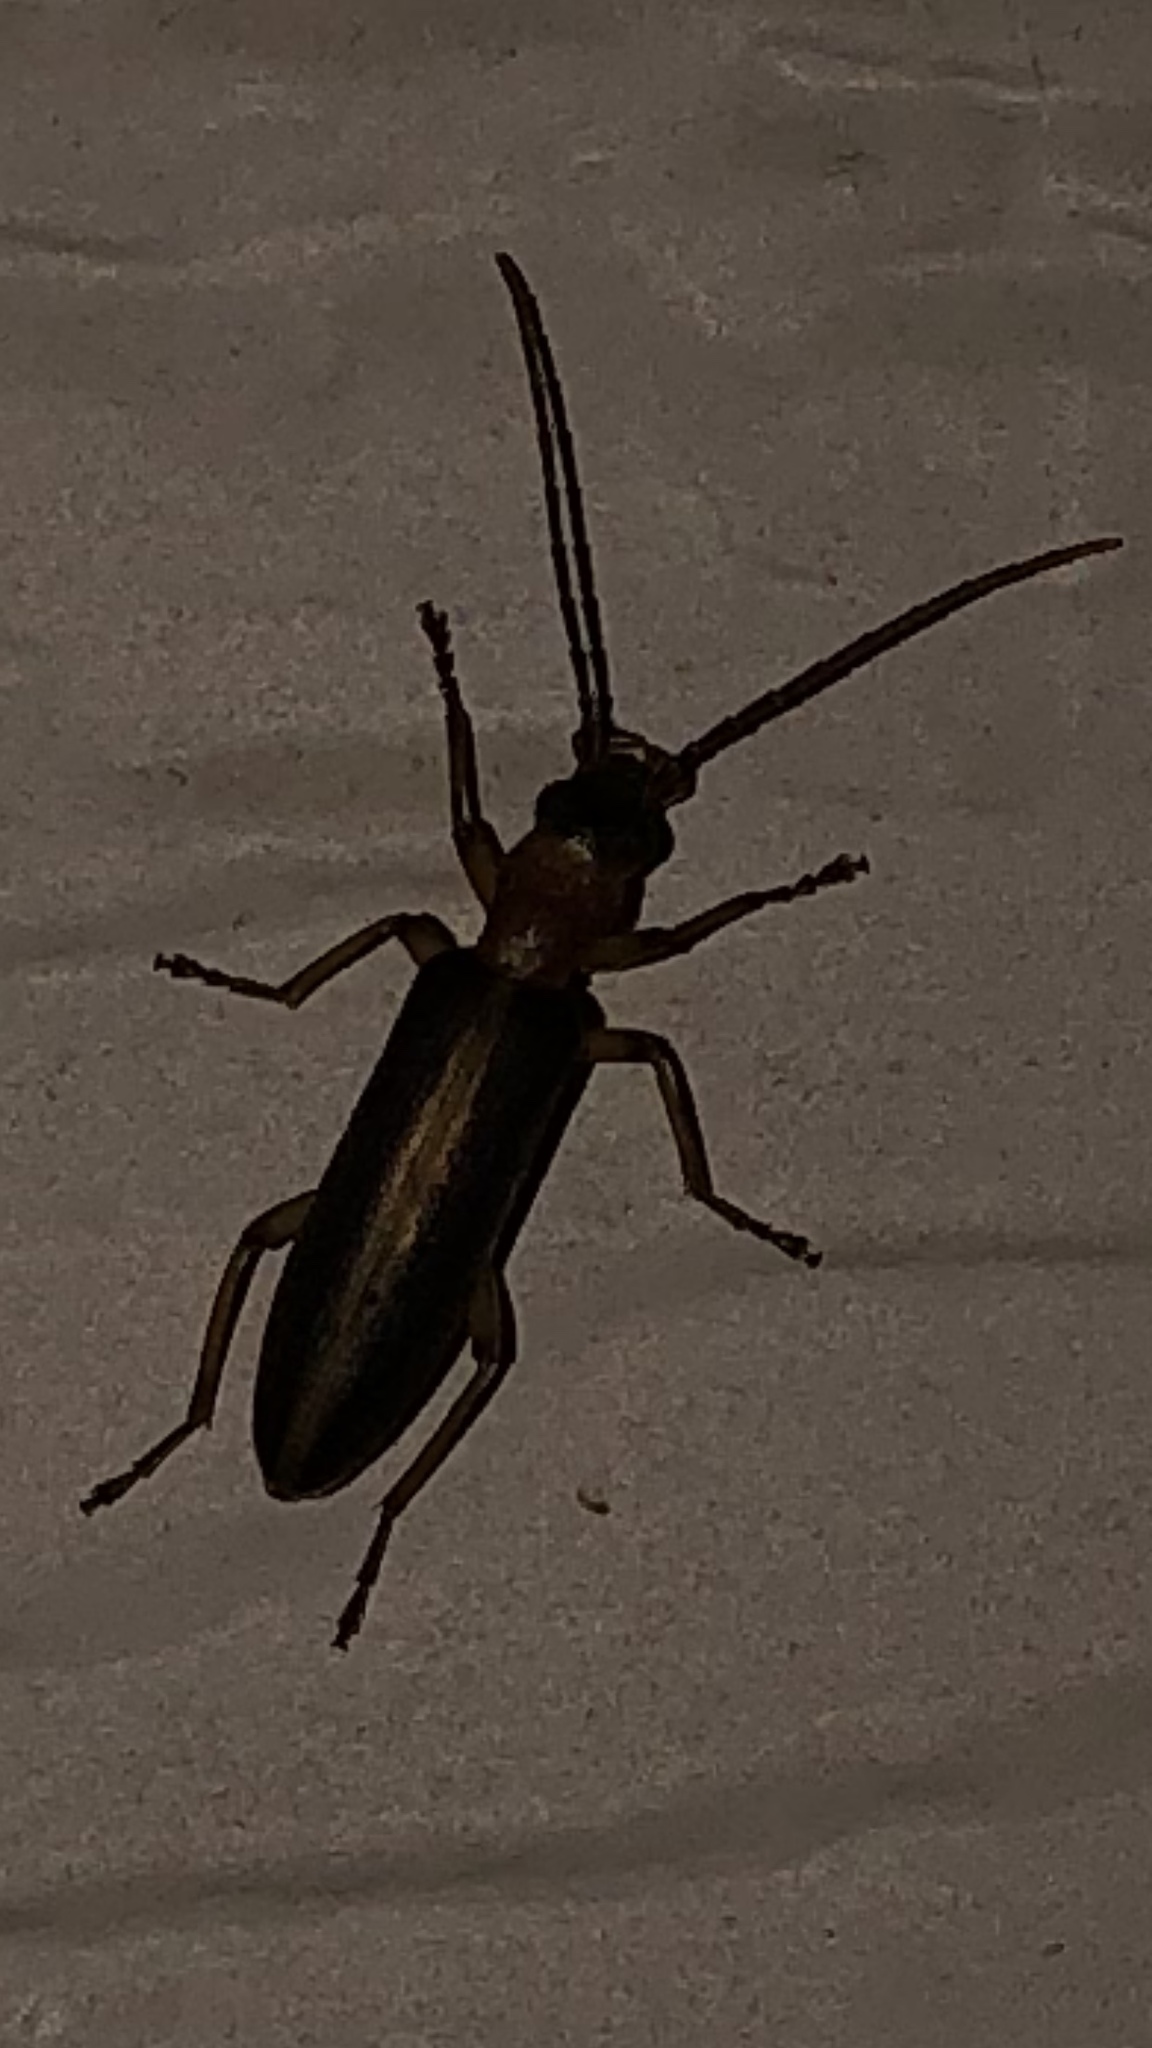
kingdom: Animalia
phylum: Arthropoda
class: Insecta
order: Coleoptera
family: Oedemeridae
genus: Oxycopis
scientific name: Oxycopis mimetica
